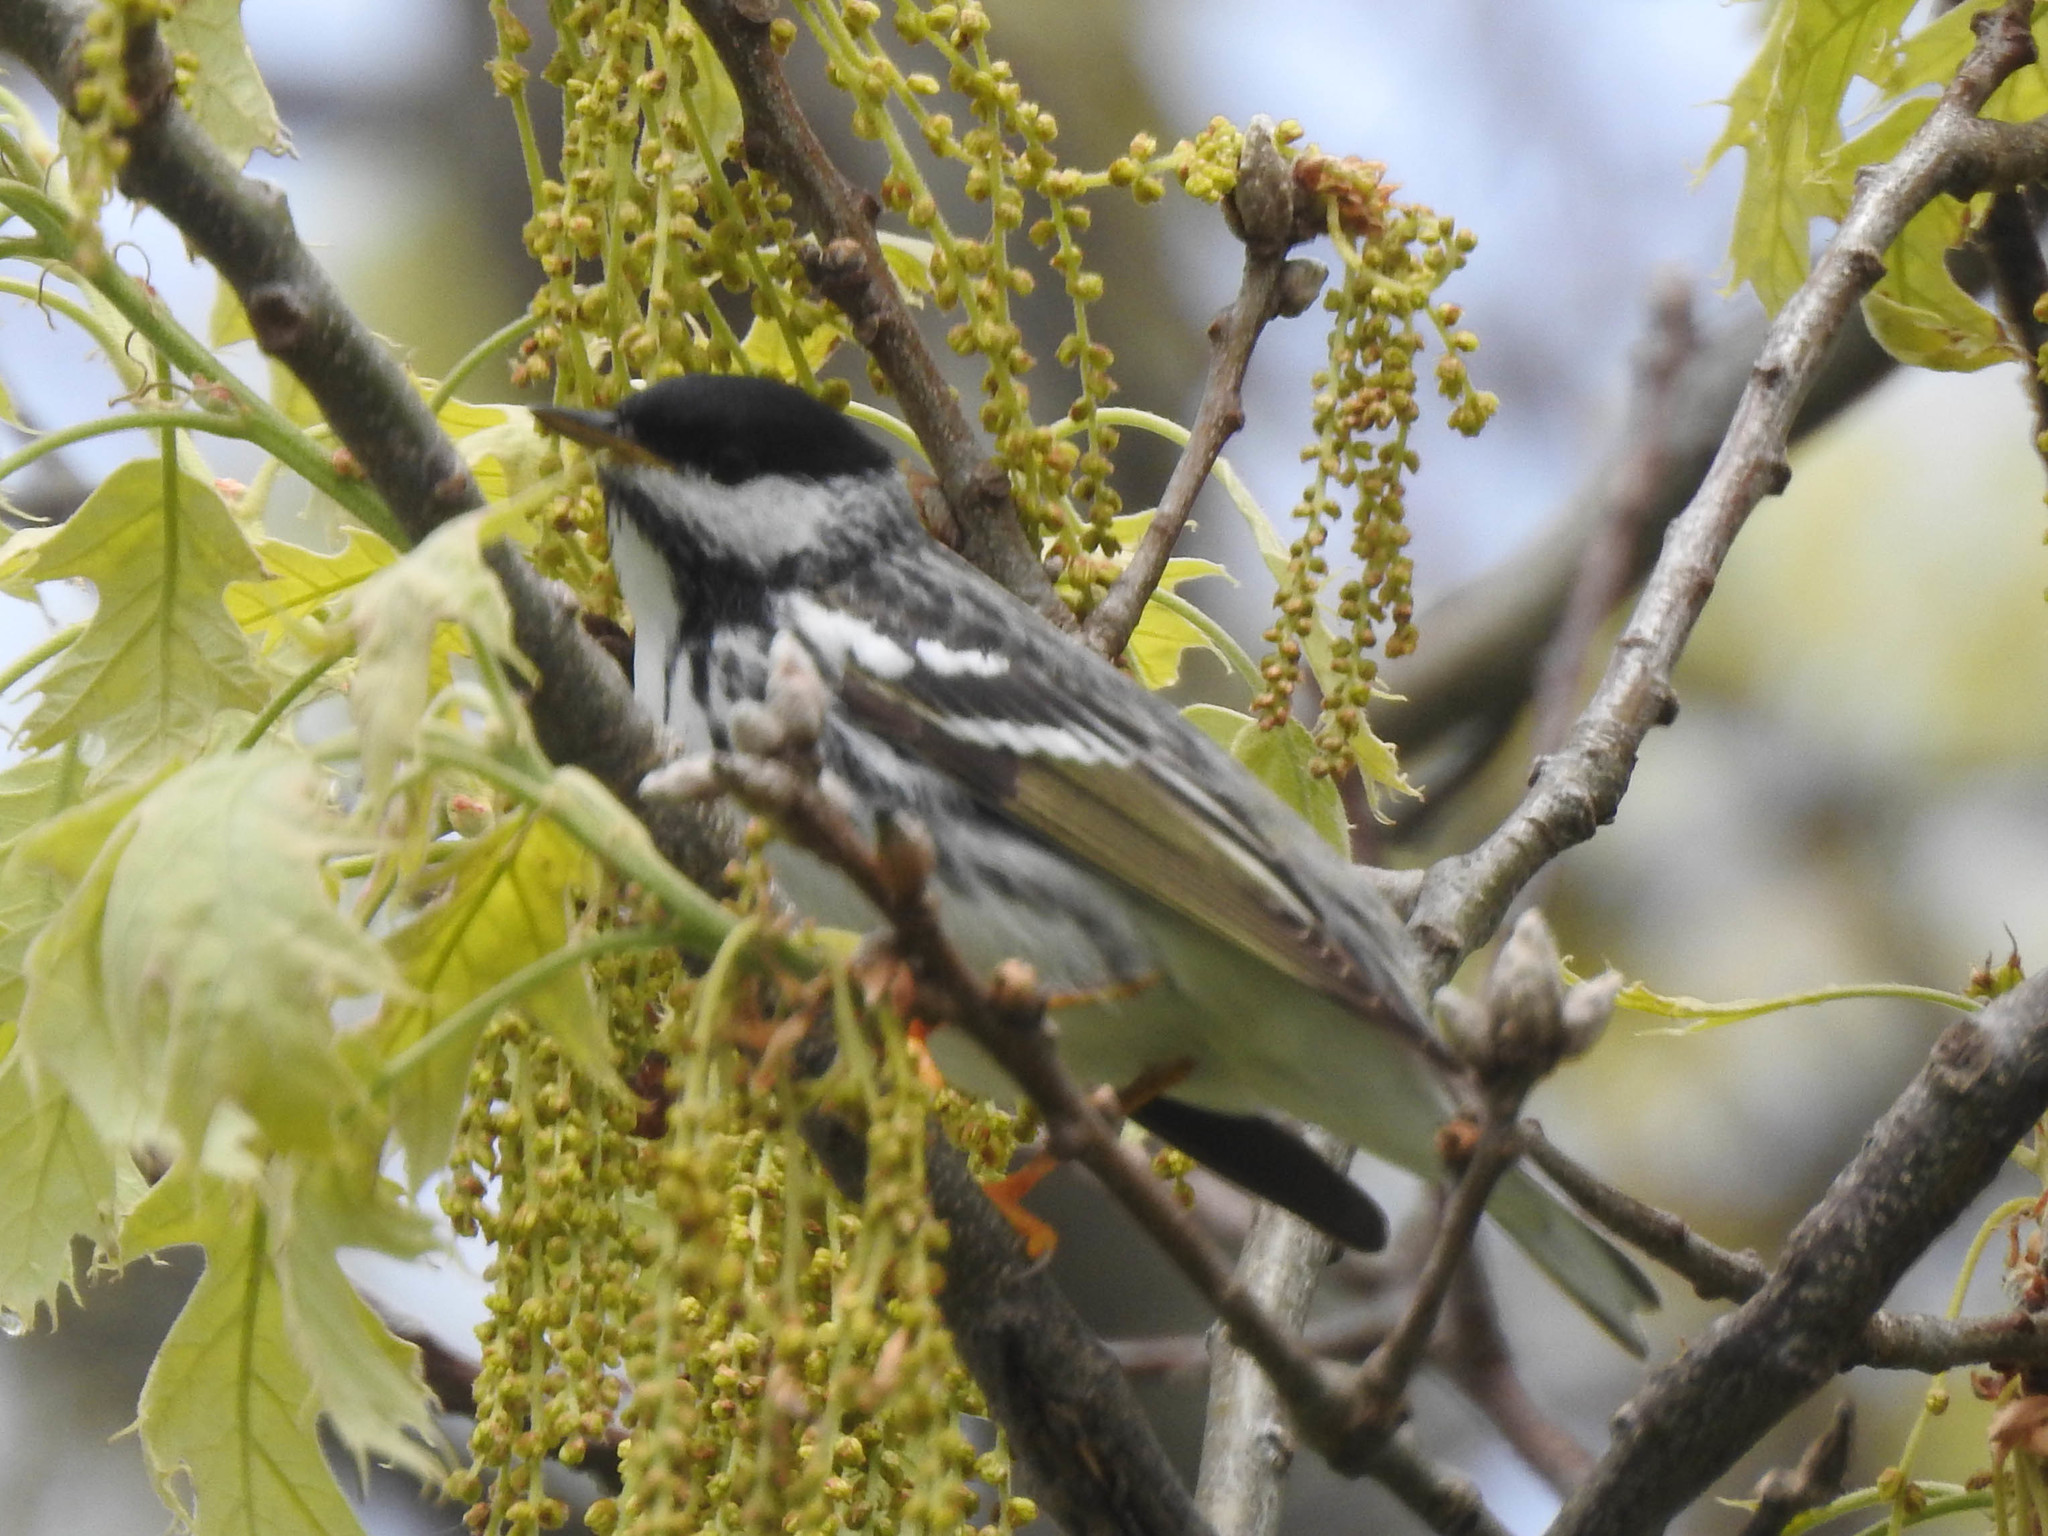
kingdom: Animalia
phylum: Chordata
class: Aves
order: Passeriformes
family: Parulidae
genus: Setophaga
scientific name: Setophaga striata
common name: Blackpoll warbler
